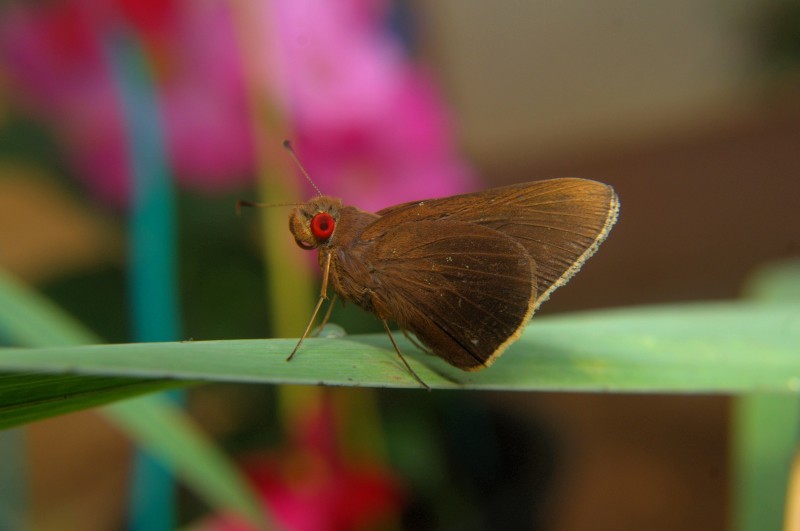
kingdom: Animalia
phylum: Arthropoda
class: Insecta
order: Lepidoptera
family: Hesperiidae
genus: Matapa
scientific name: Matapa aria
